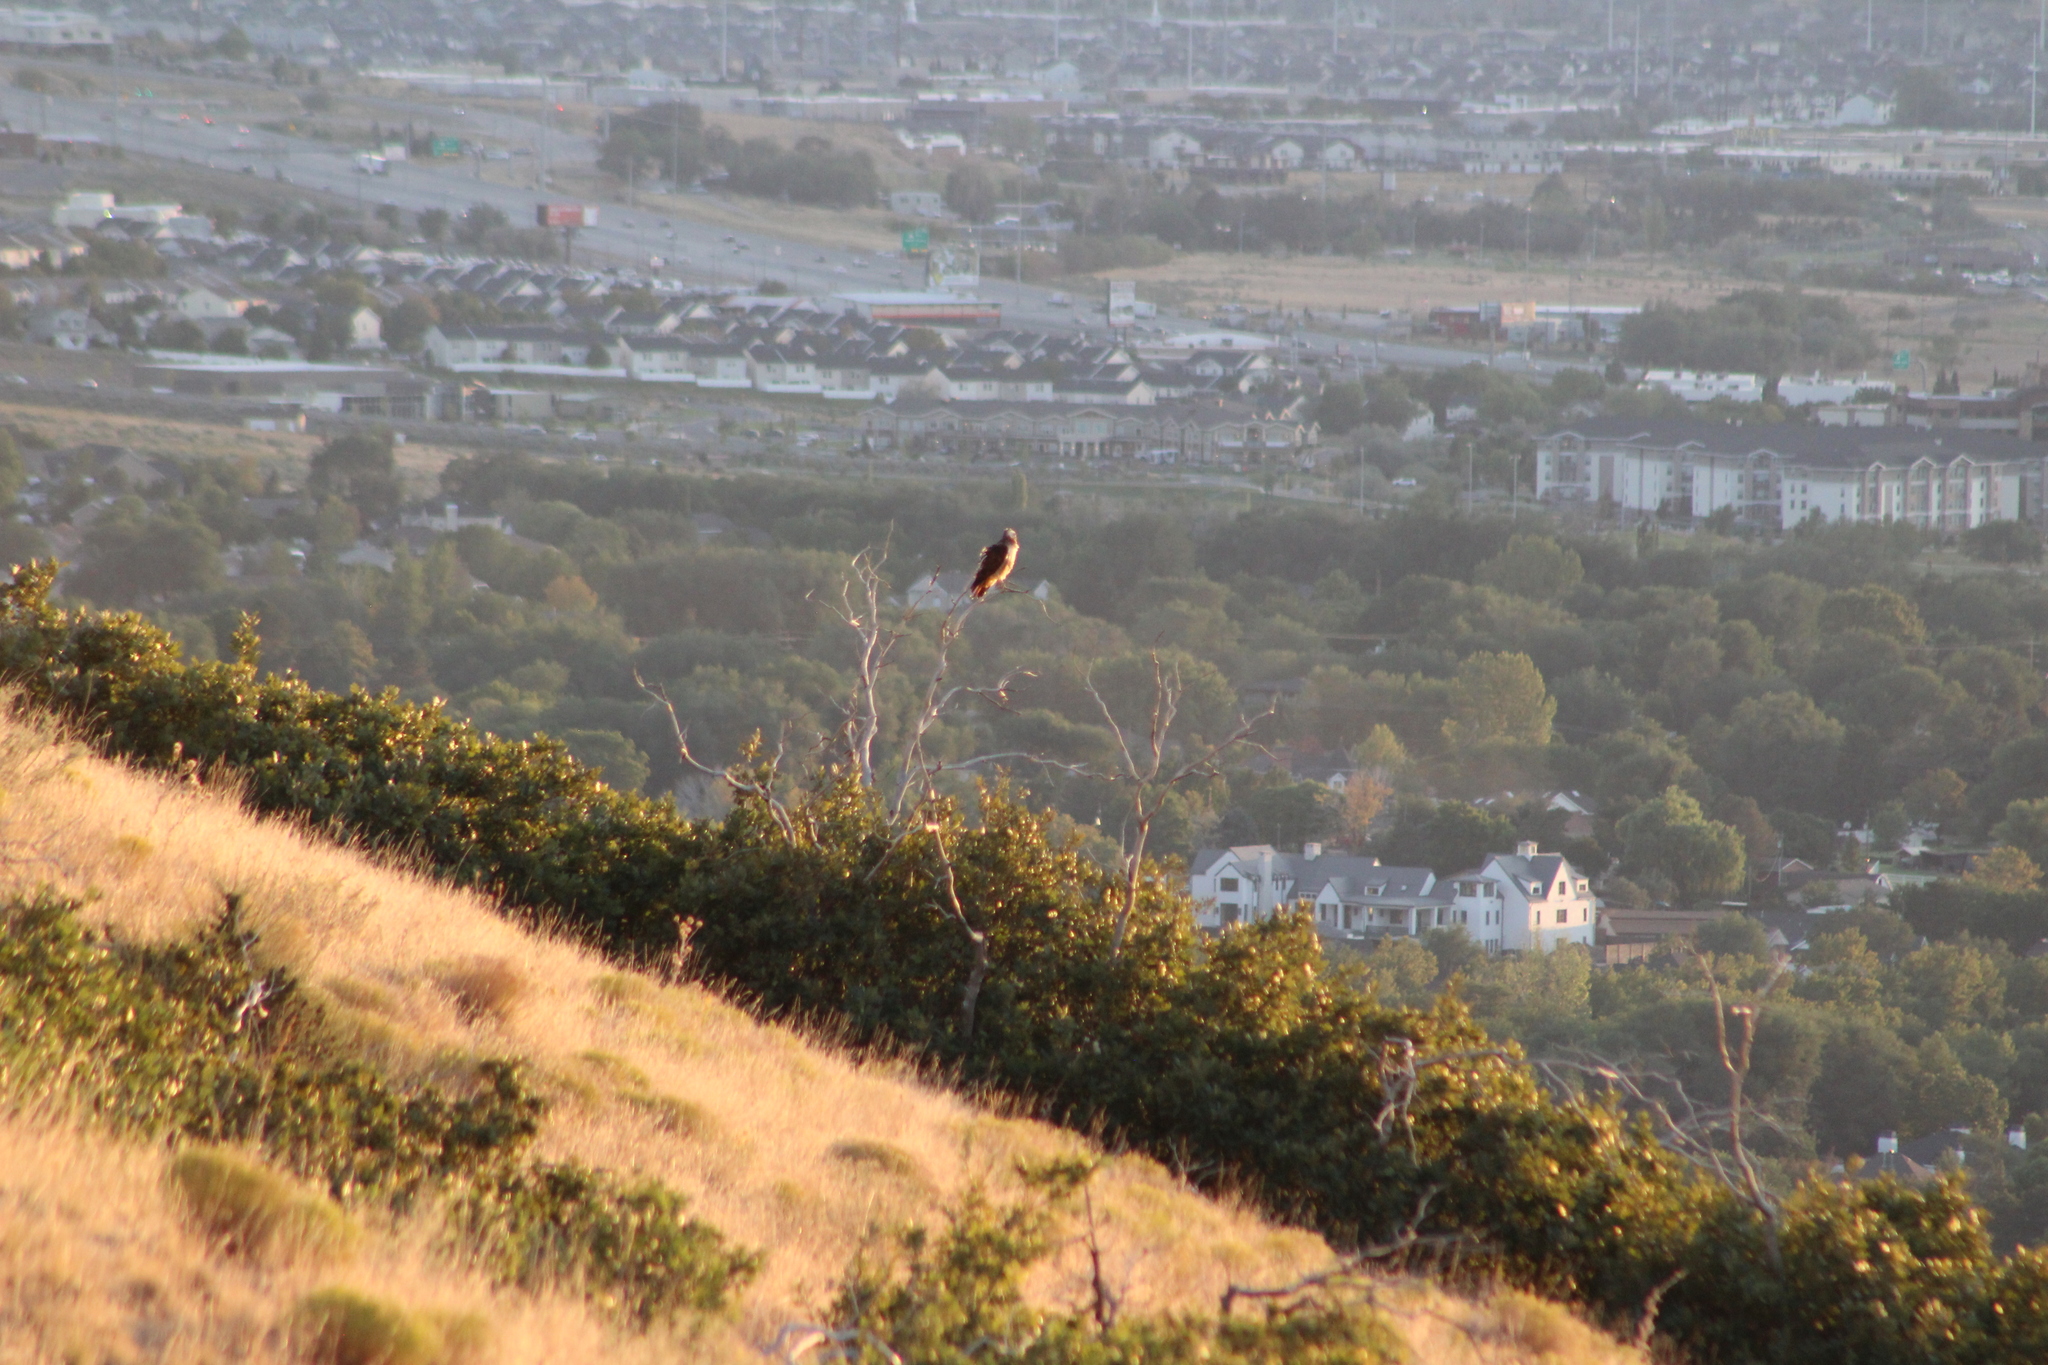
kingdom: Animalia
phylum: Chordata
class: Aves
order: Accipitriformes
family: Accipitridae
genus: Buteo
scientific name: Buteo jamaicensis
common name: Red-tailed hawk
